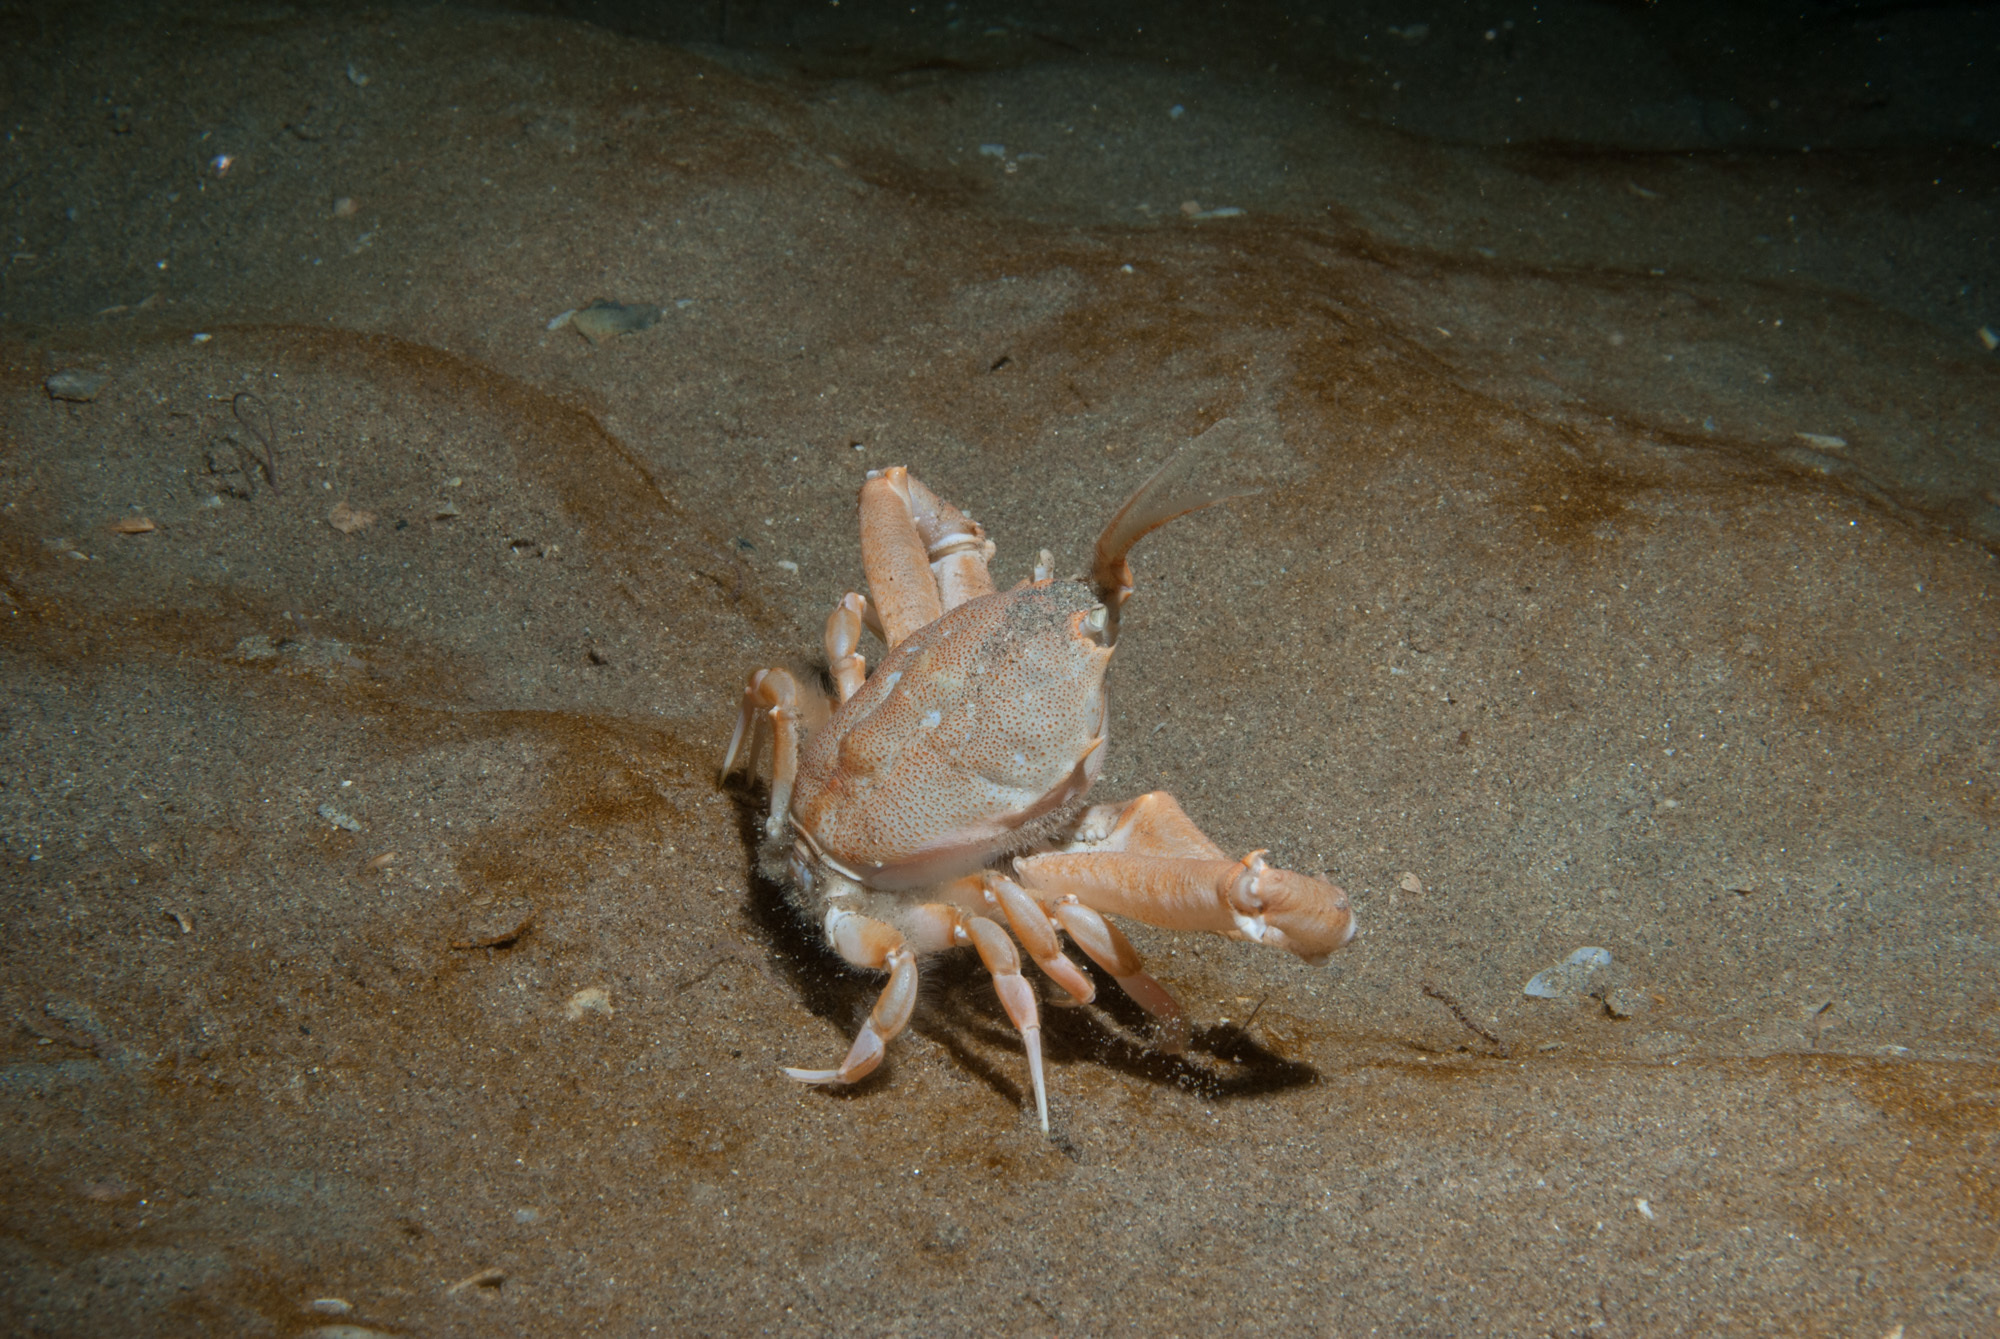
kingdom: Animalia
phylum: Arthropoda
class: Malacostraca
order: Decapoda
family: Corystidae
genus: Corystes
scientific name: Corystes cassivelaunus
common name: Masked crab
